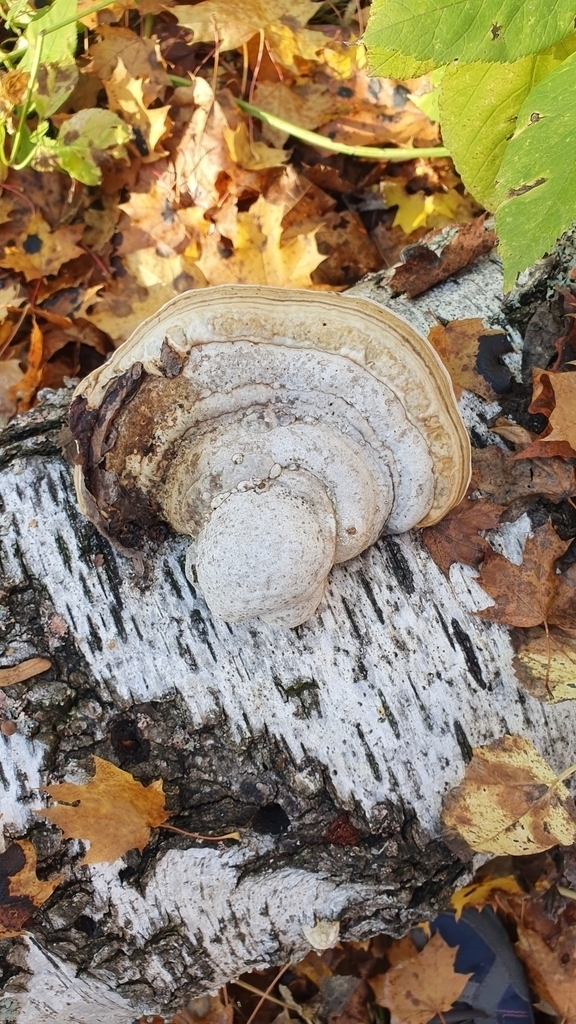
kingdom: Fungi
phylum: Basidiomycota
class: Agaricomycetes
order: Polyporales
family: Polyporaceae
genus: Fomes
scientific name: Fomes fomentarius
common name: Hoof fungus
